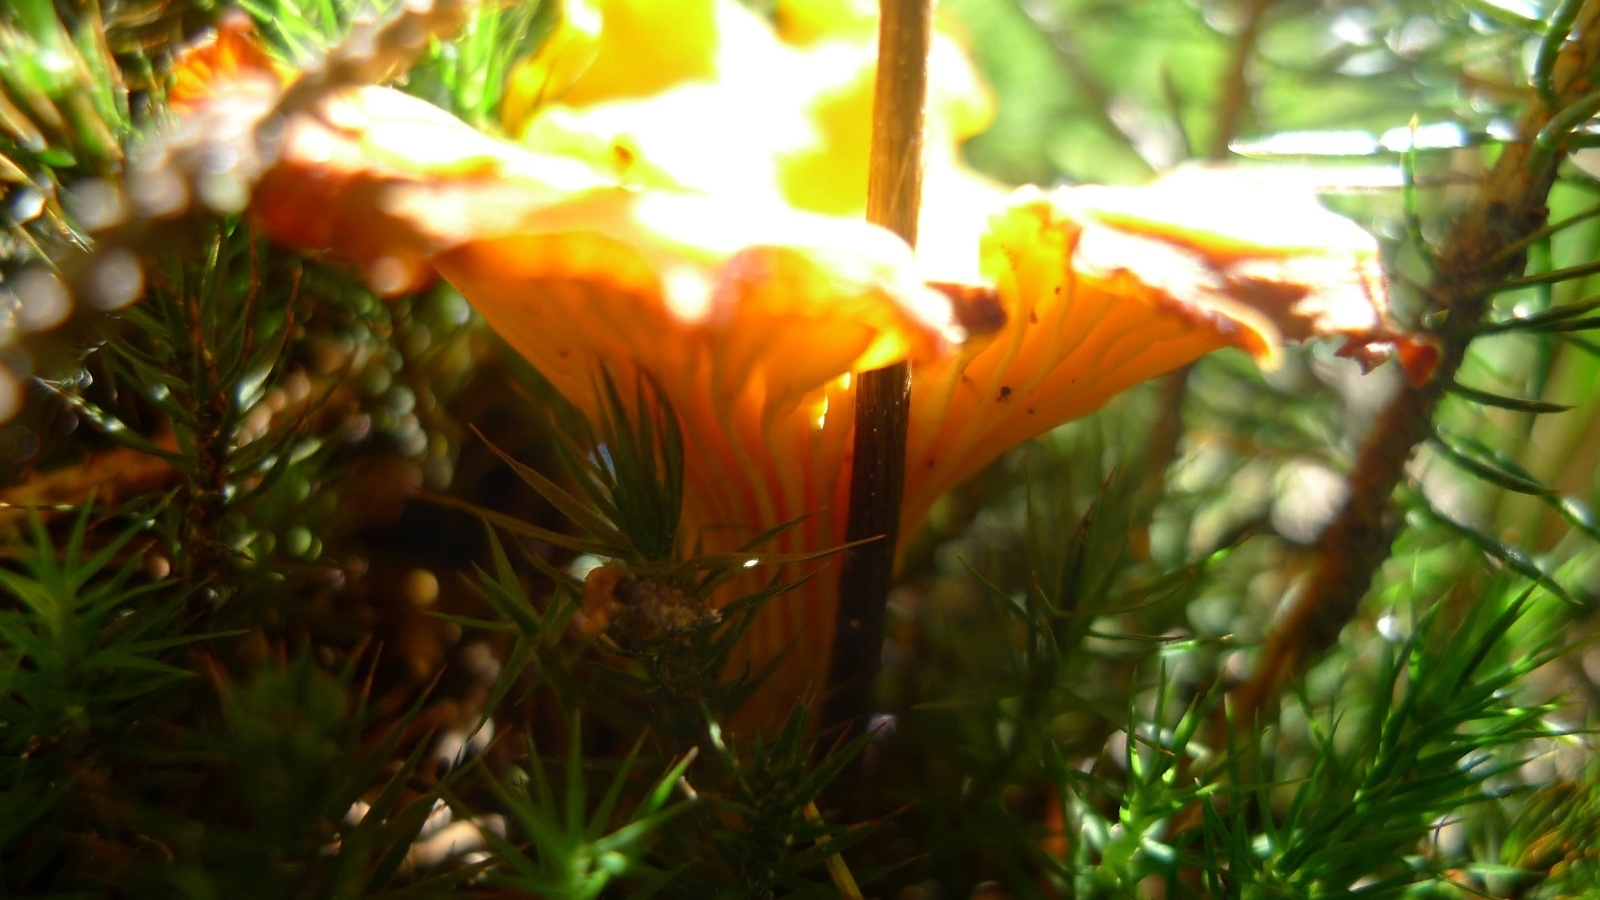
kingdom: Fungi
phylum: Basidiomycota
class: Agaricomycetes
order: Cantharellales
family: Hydnaceae
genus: Cantharellus
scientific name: Cantharellus cibarius
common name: Chanterelle
